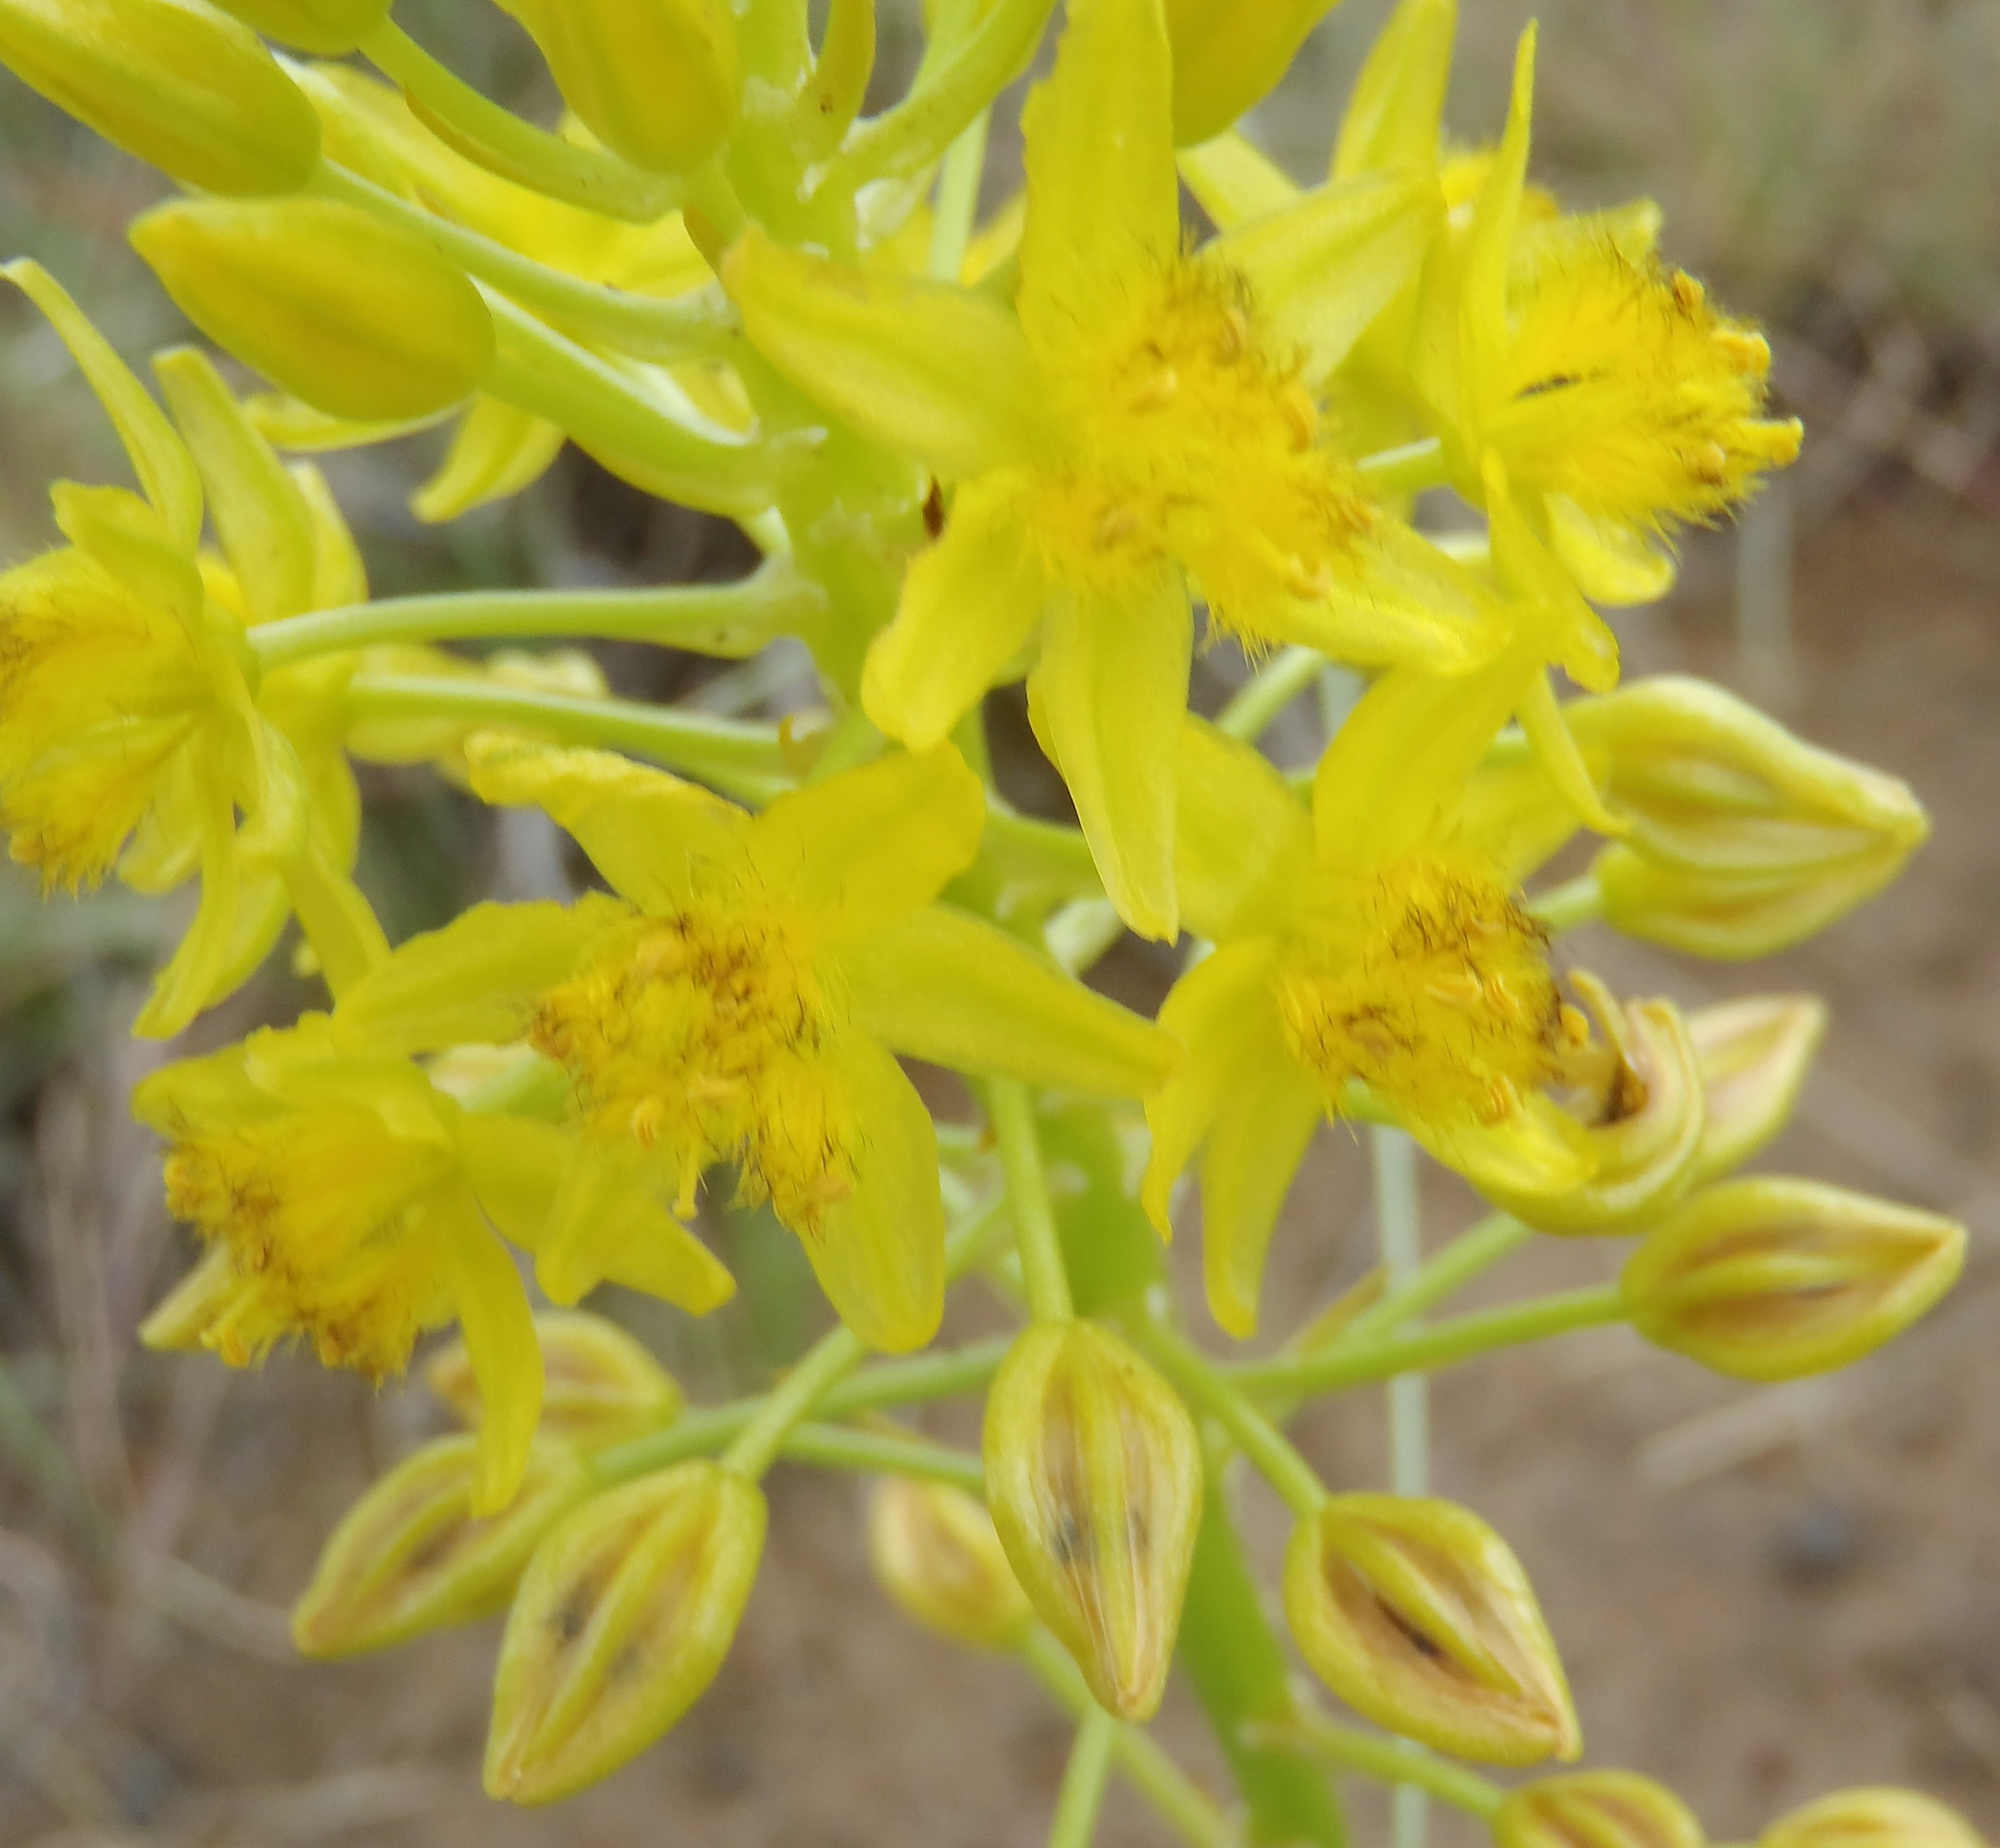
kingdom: Plantae
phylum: Tracheophyta
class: Liliopsida
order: Asparagales
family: Asphodelaceae
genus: Bulbine
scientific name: Bulbine abyssinica
